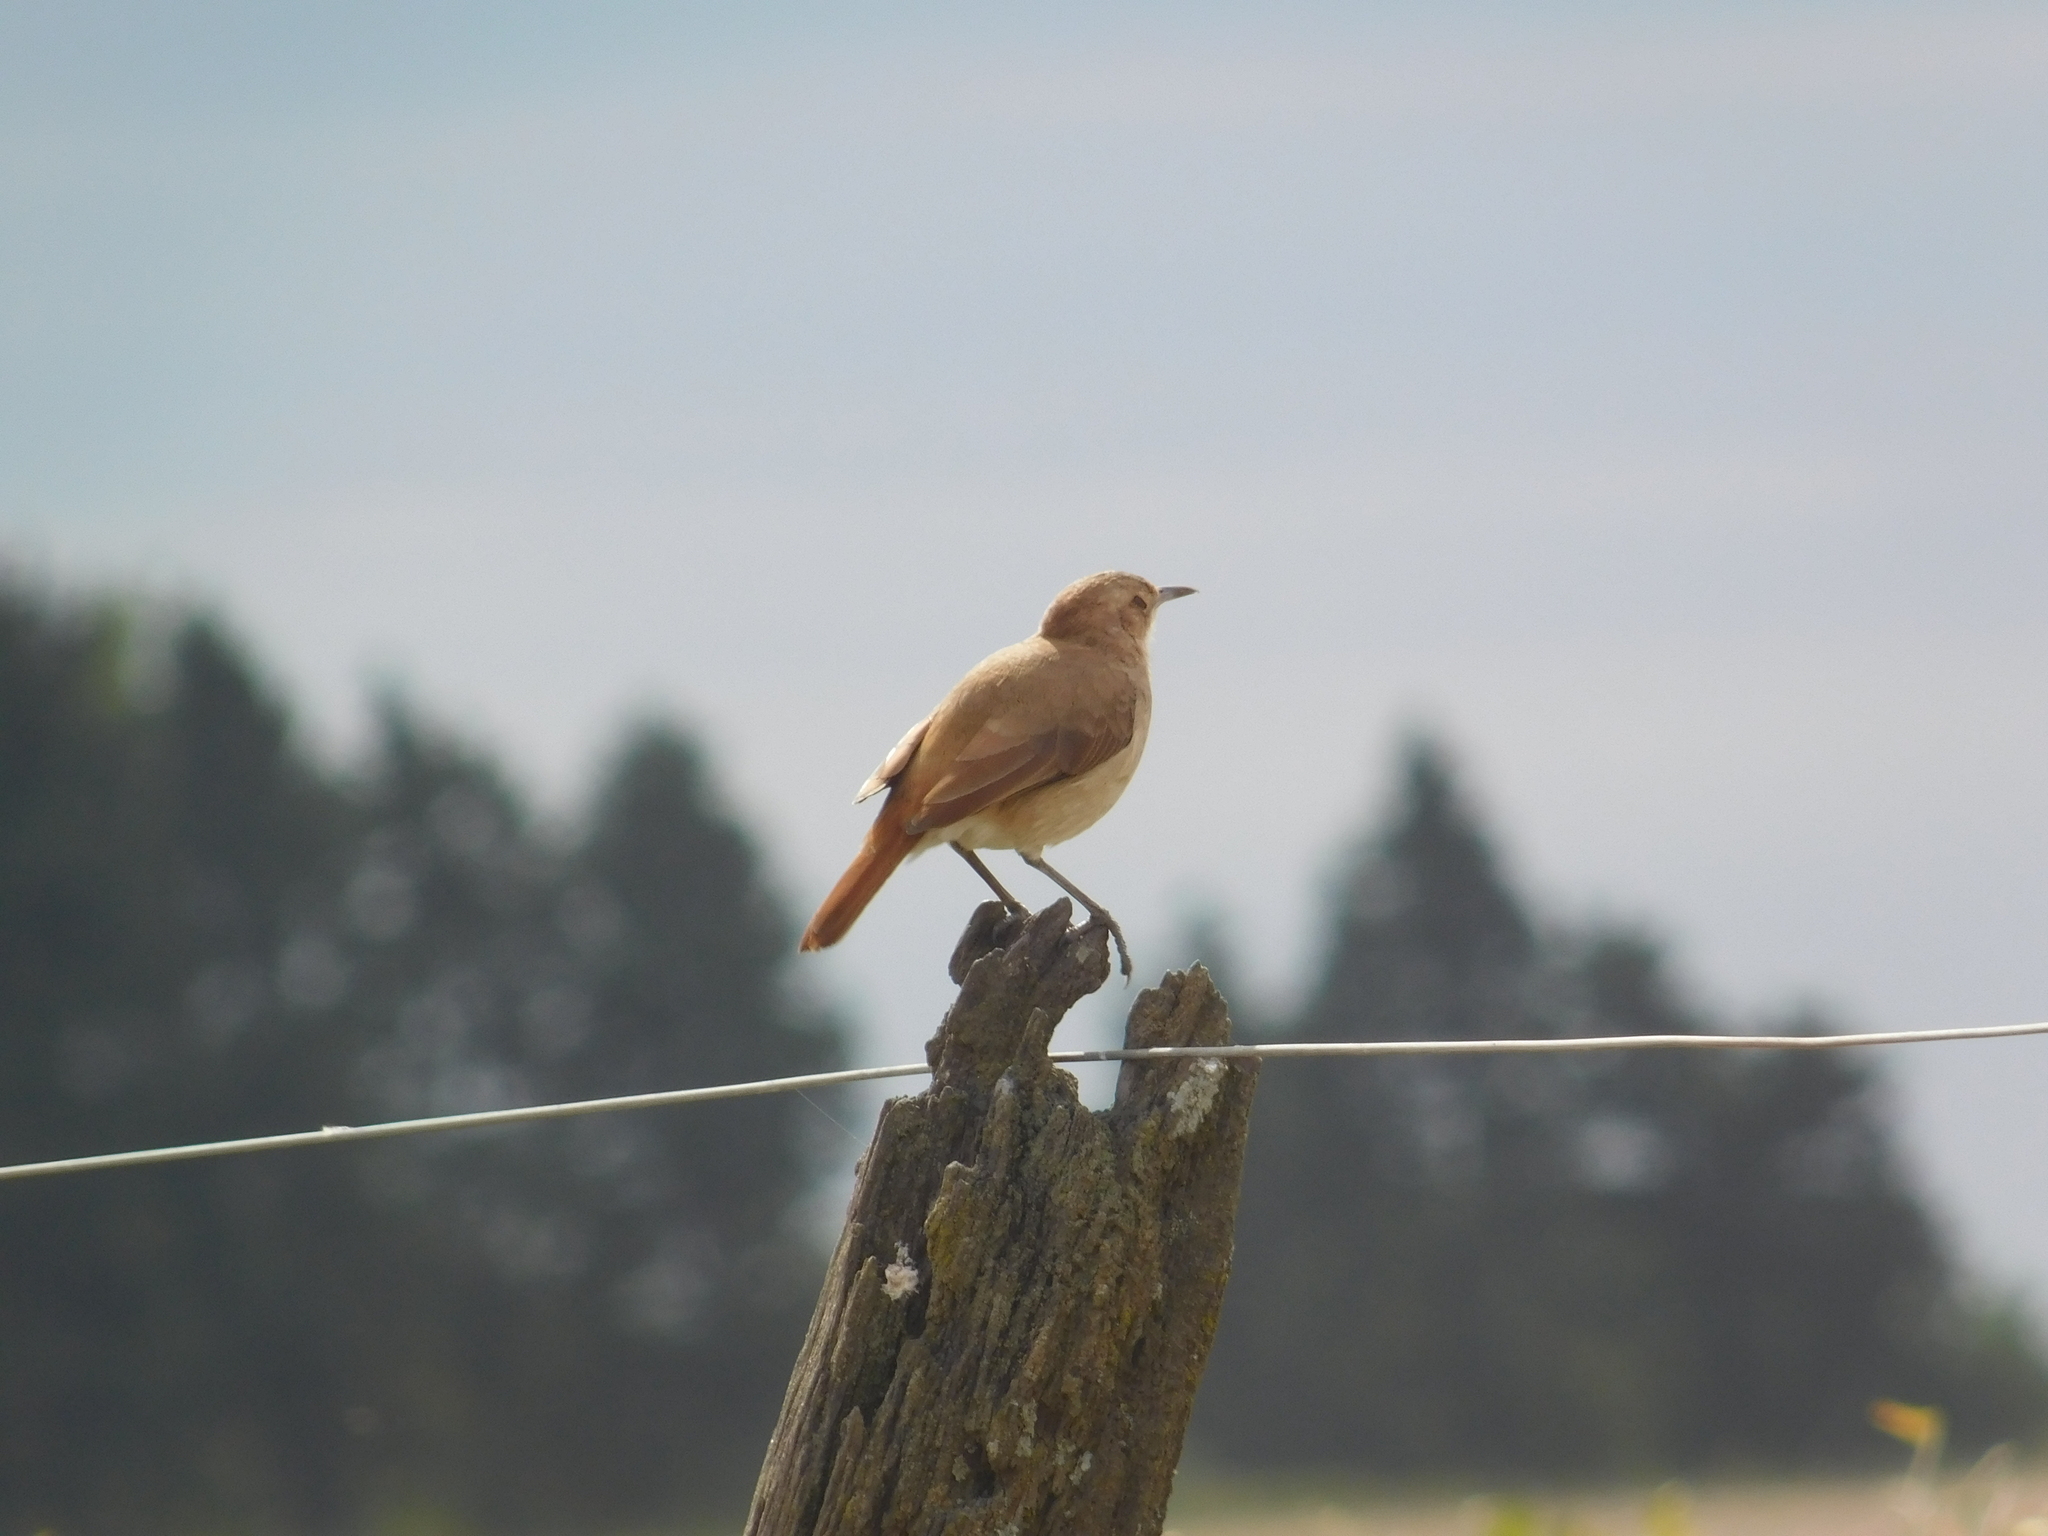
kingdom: Animalia
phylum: Chordata
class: Aves
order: Passeriformes
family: Furnariidae
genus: Furnarius
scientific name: Furnarius rufus
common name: Rufous hornero
